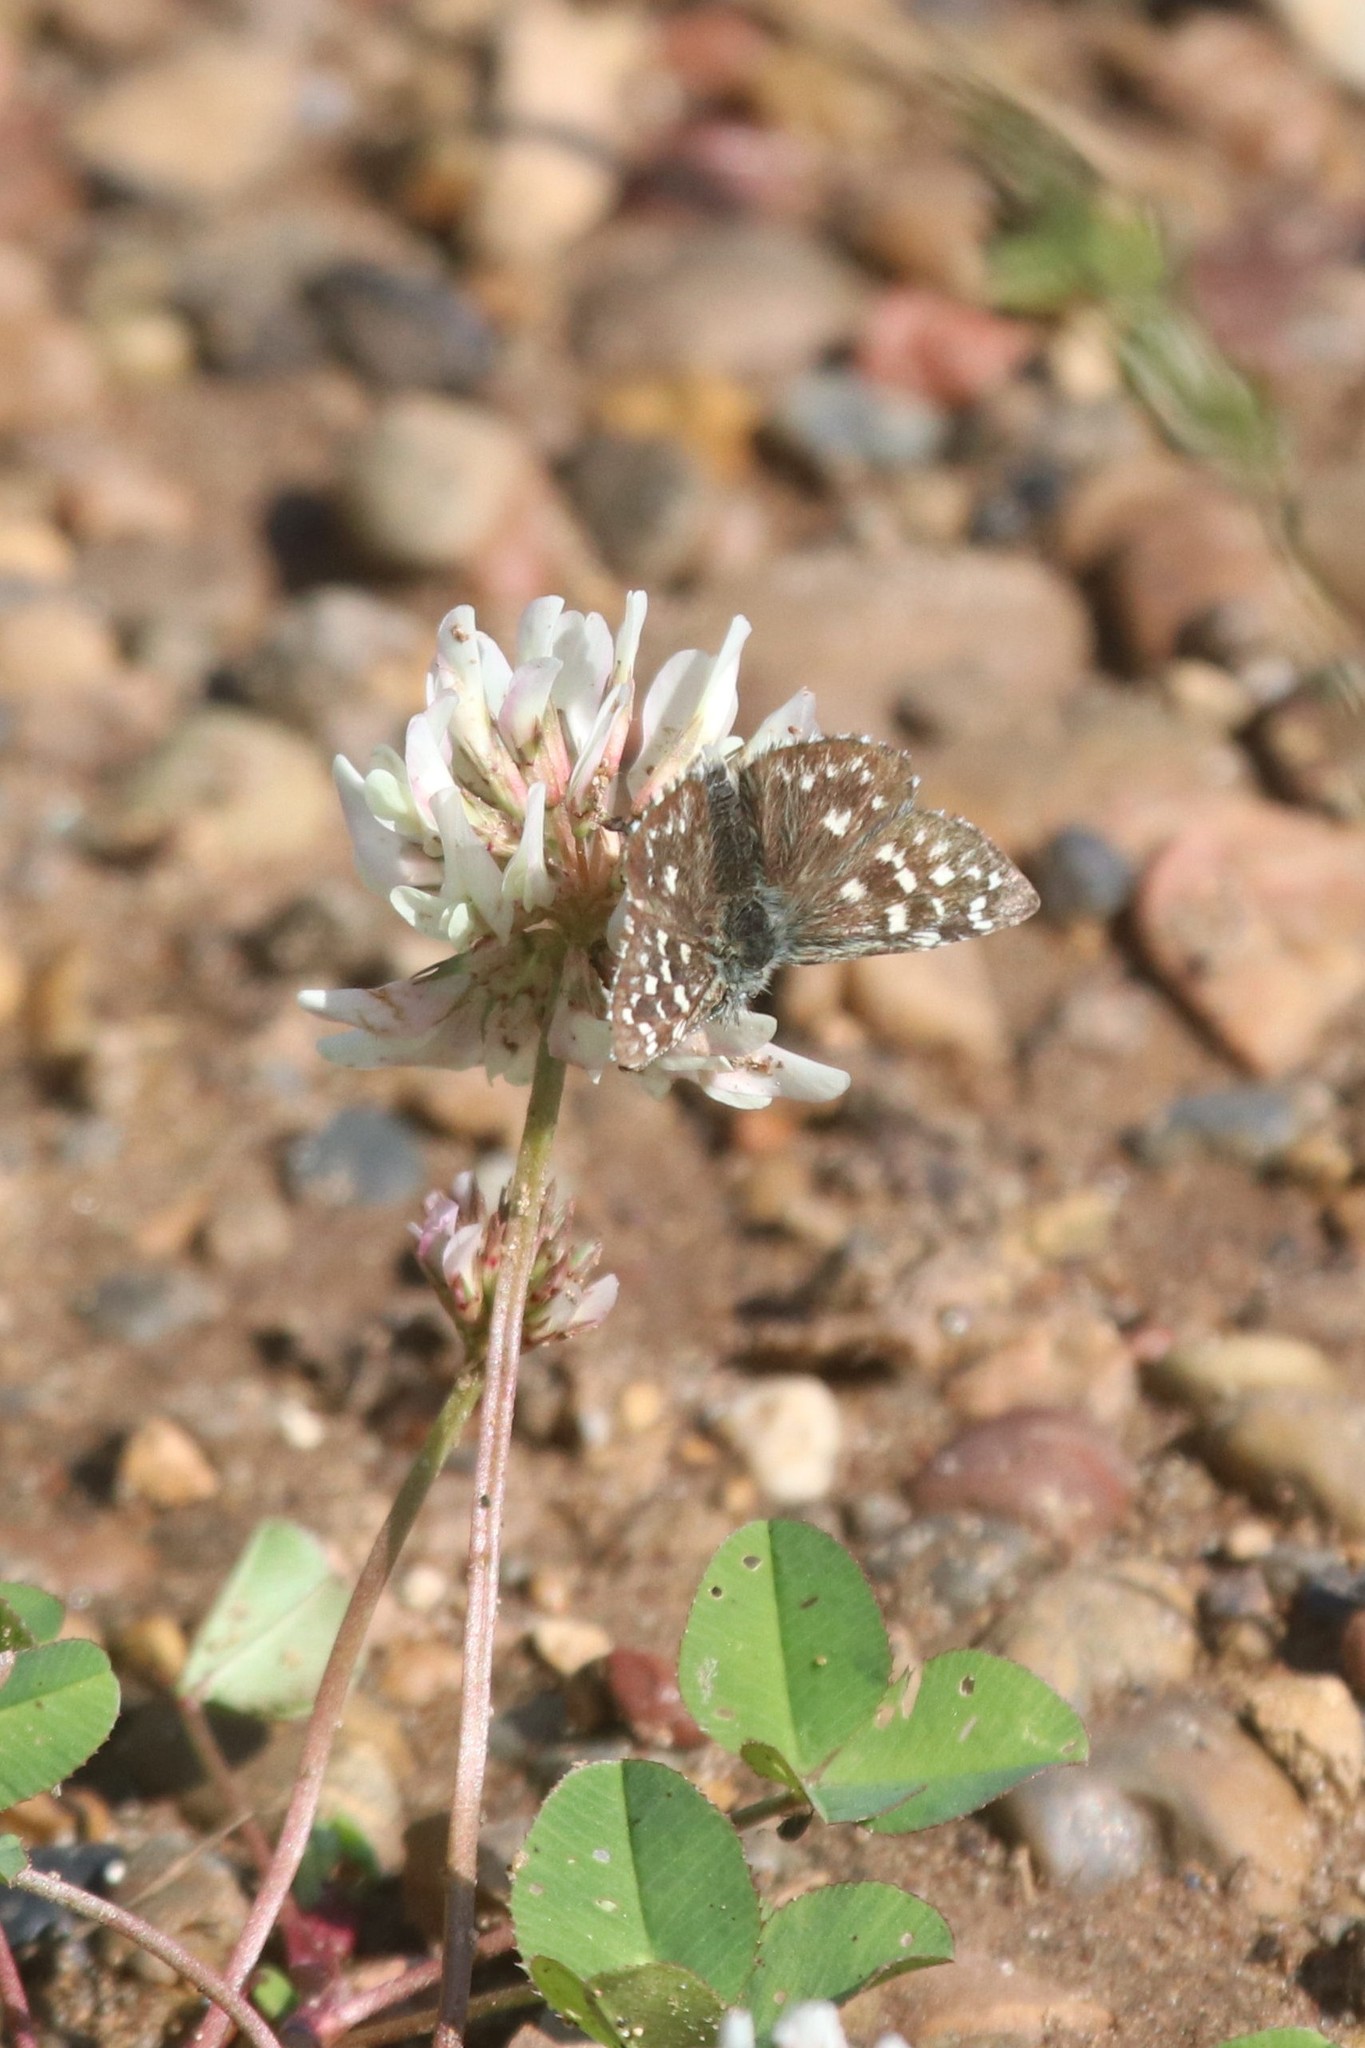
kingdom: Animalia
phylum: Arthropoda
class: Insecta
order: Lepidoptera
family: Hesperiidae
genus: Pyrgus
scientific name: Pyrgus malvae
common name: Grizzled skipper
